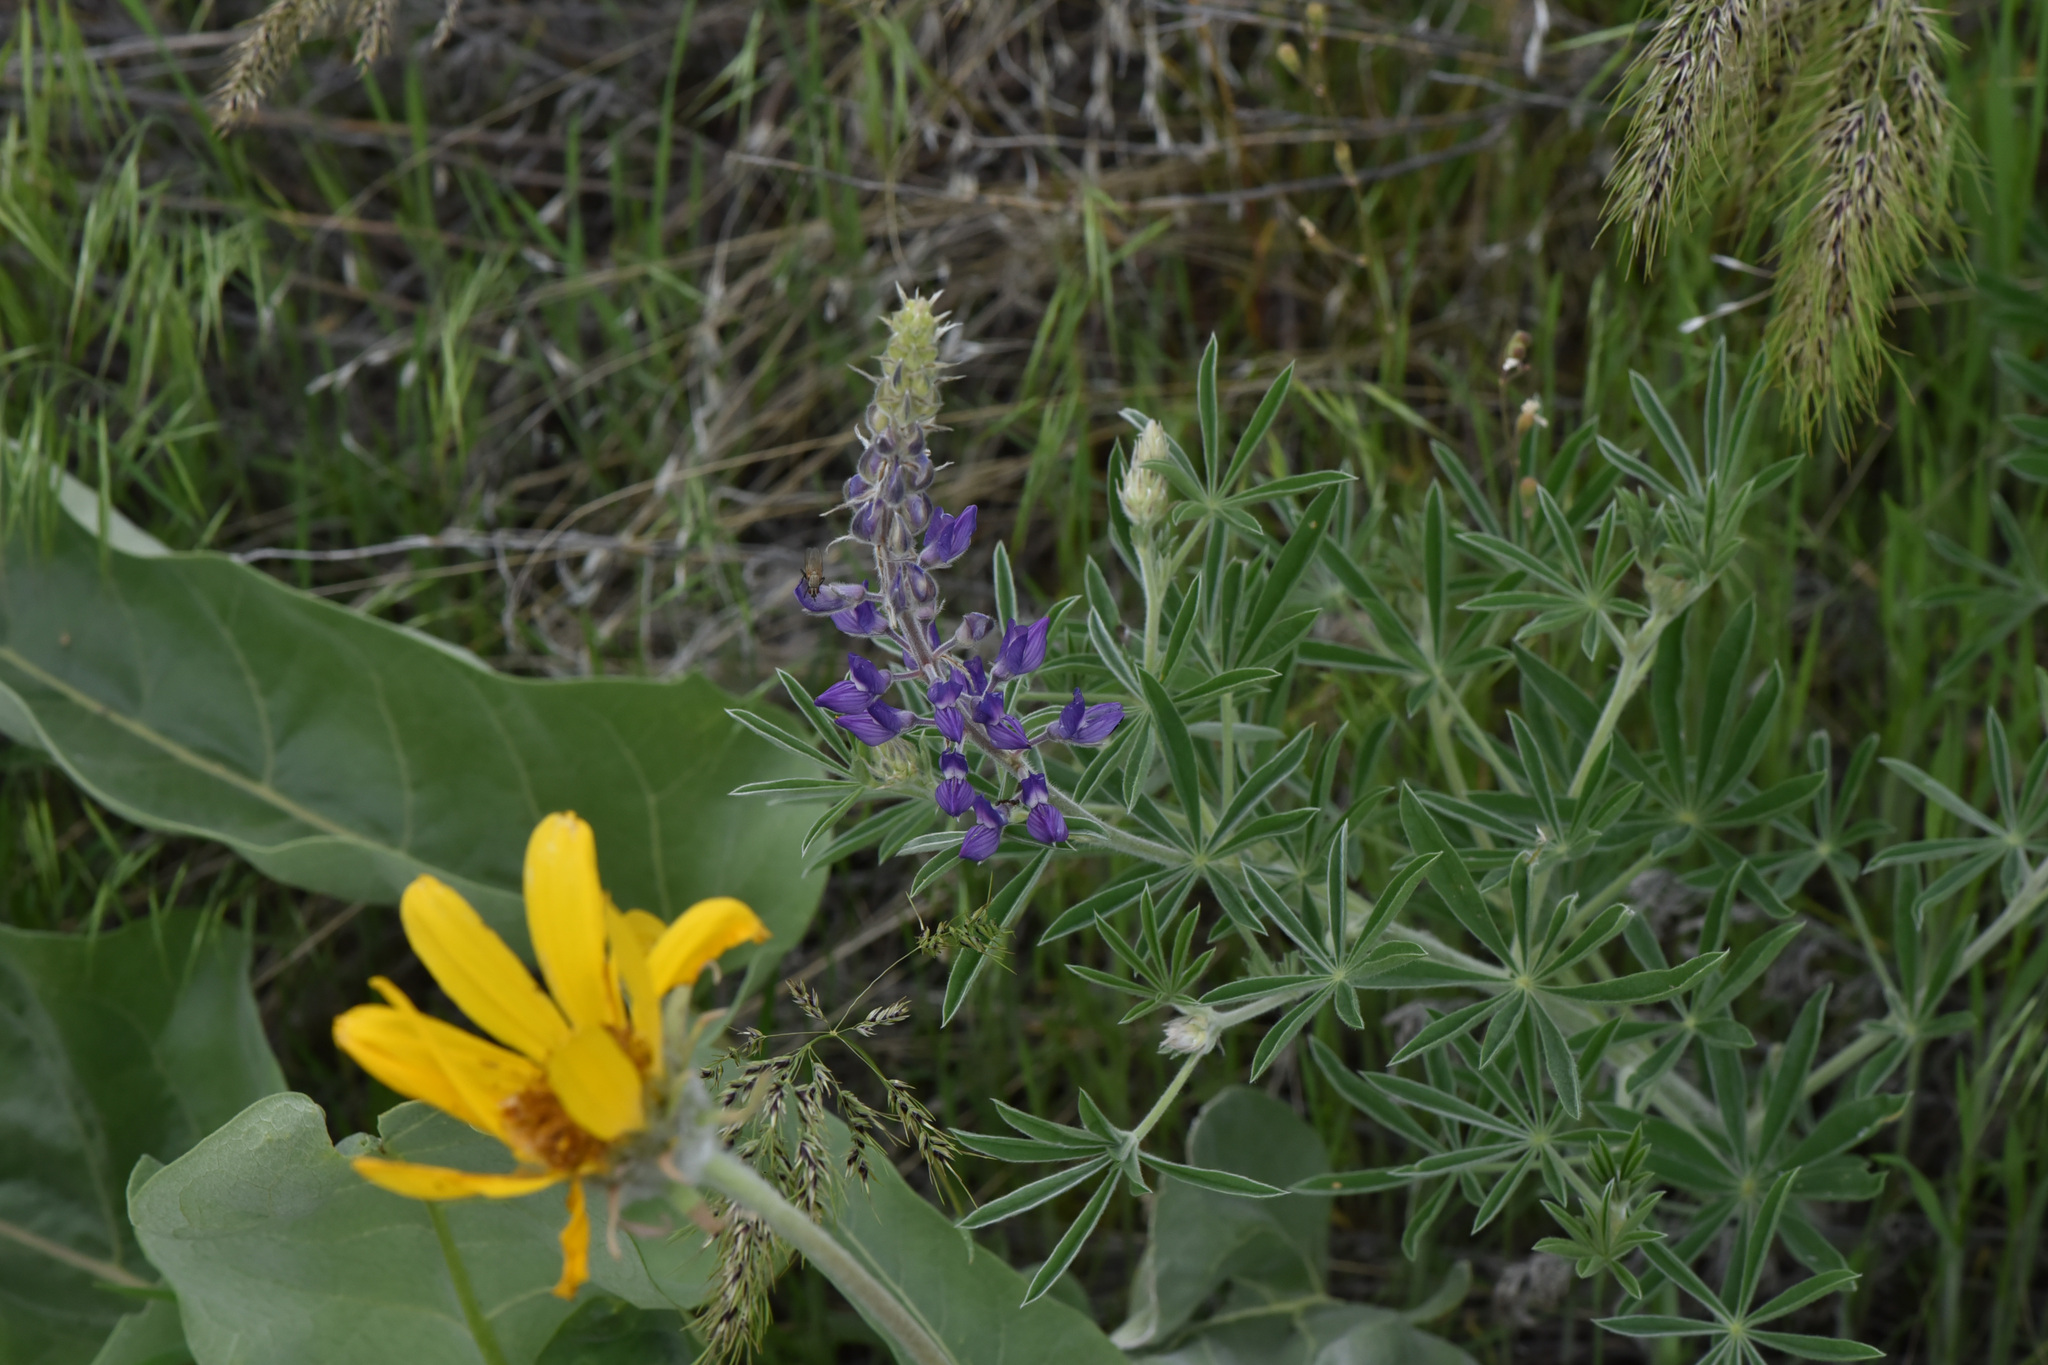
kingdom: Plantae
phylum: Tracheophyta
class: Magnoliopsida
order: Fabales
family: Fabaceae
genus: Lupinus
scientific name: Lupinus sericeus
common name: Silky lupine
